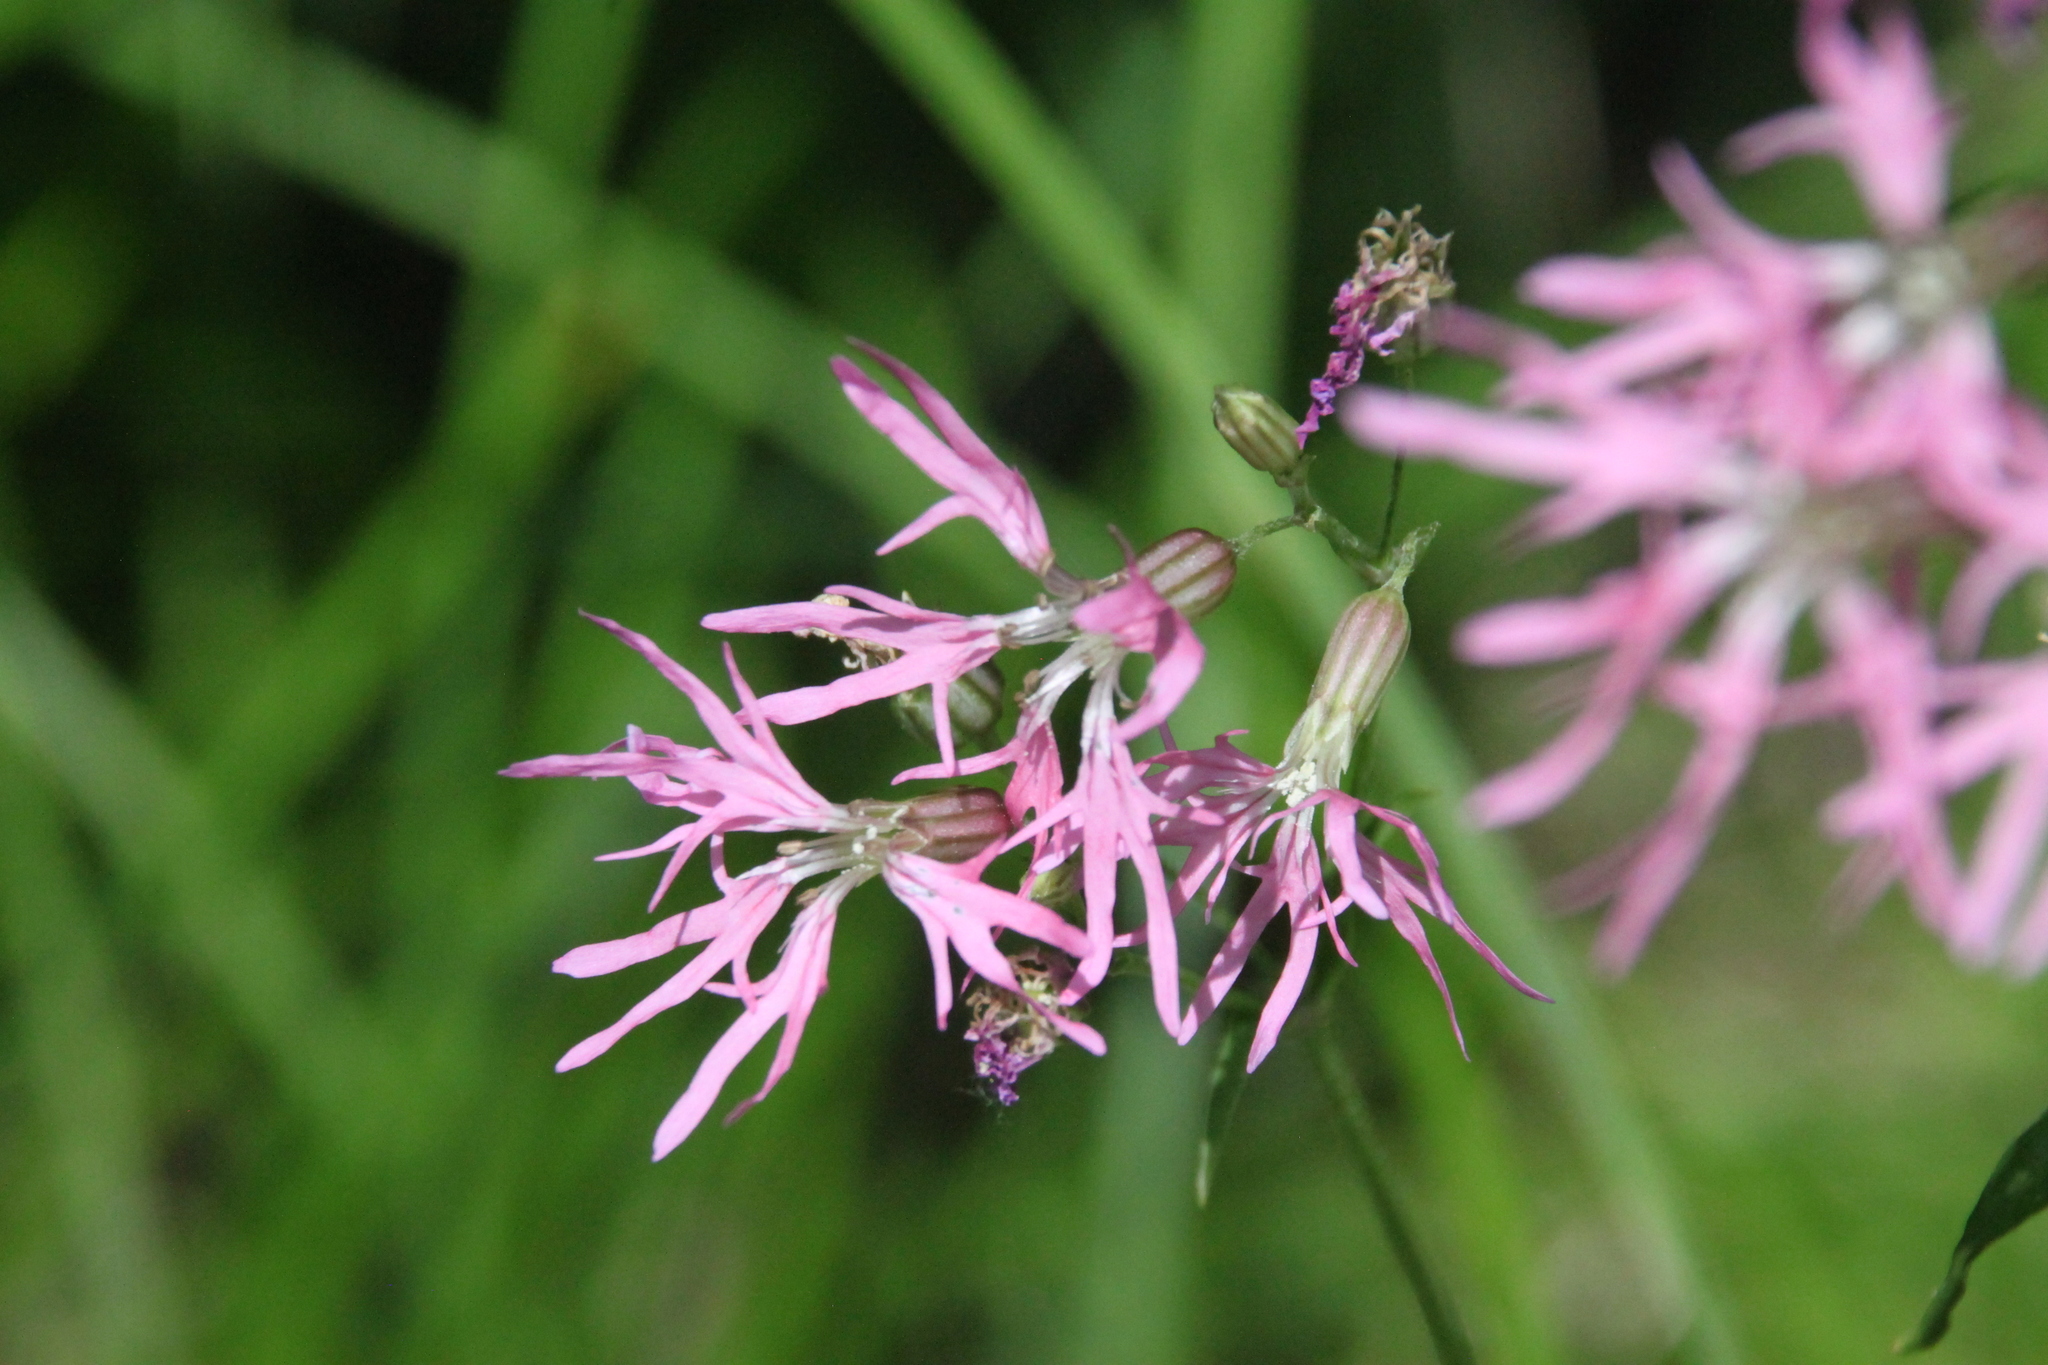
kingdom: Plantae
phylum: Tracheophyta
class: Magnoliopsida
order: Caryophyllales
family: Caryophyllaceae
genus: Silene
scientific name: Silene flos-cuculi
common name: Ragged-robin
